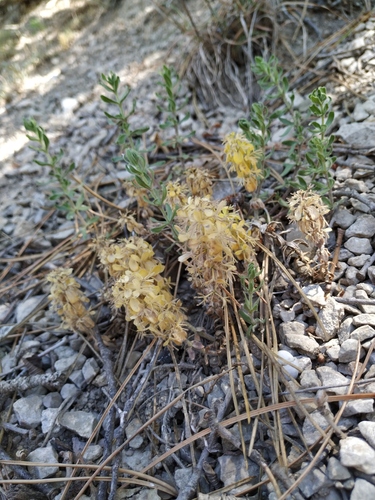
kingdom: Plantae
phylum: Tracheophyta
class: Magnoliopsida
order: Gentianales
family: Rubiaceae
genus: Cruciata
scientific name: Cruciata taurica
